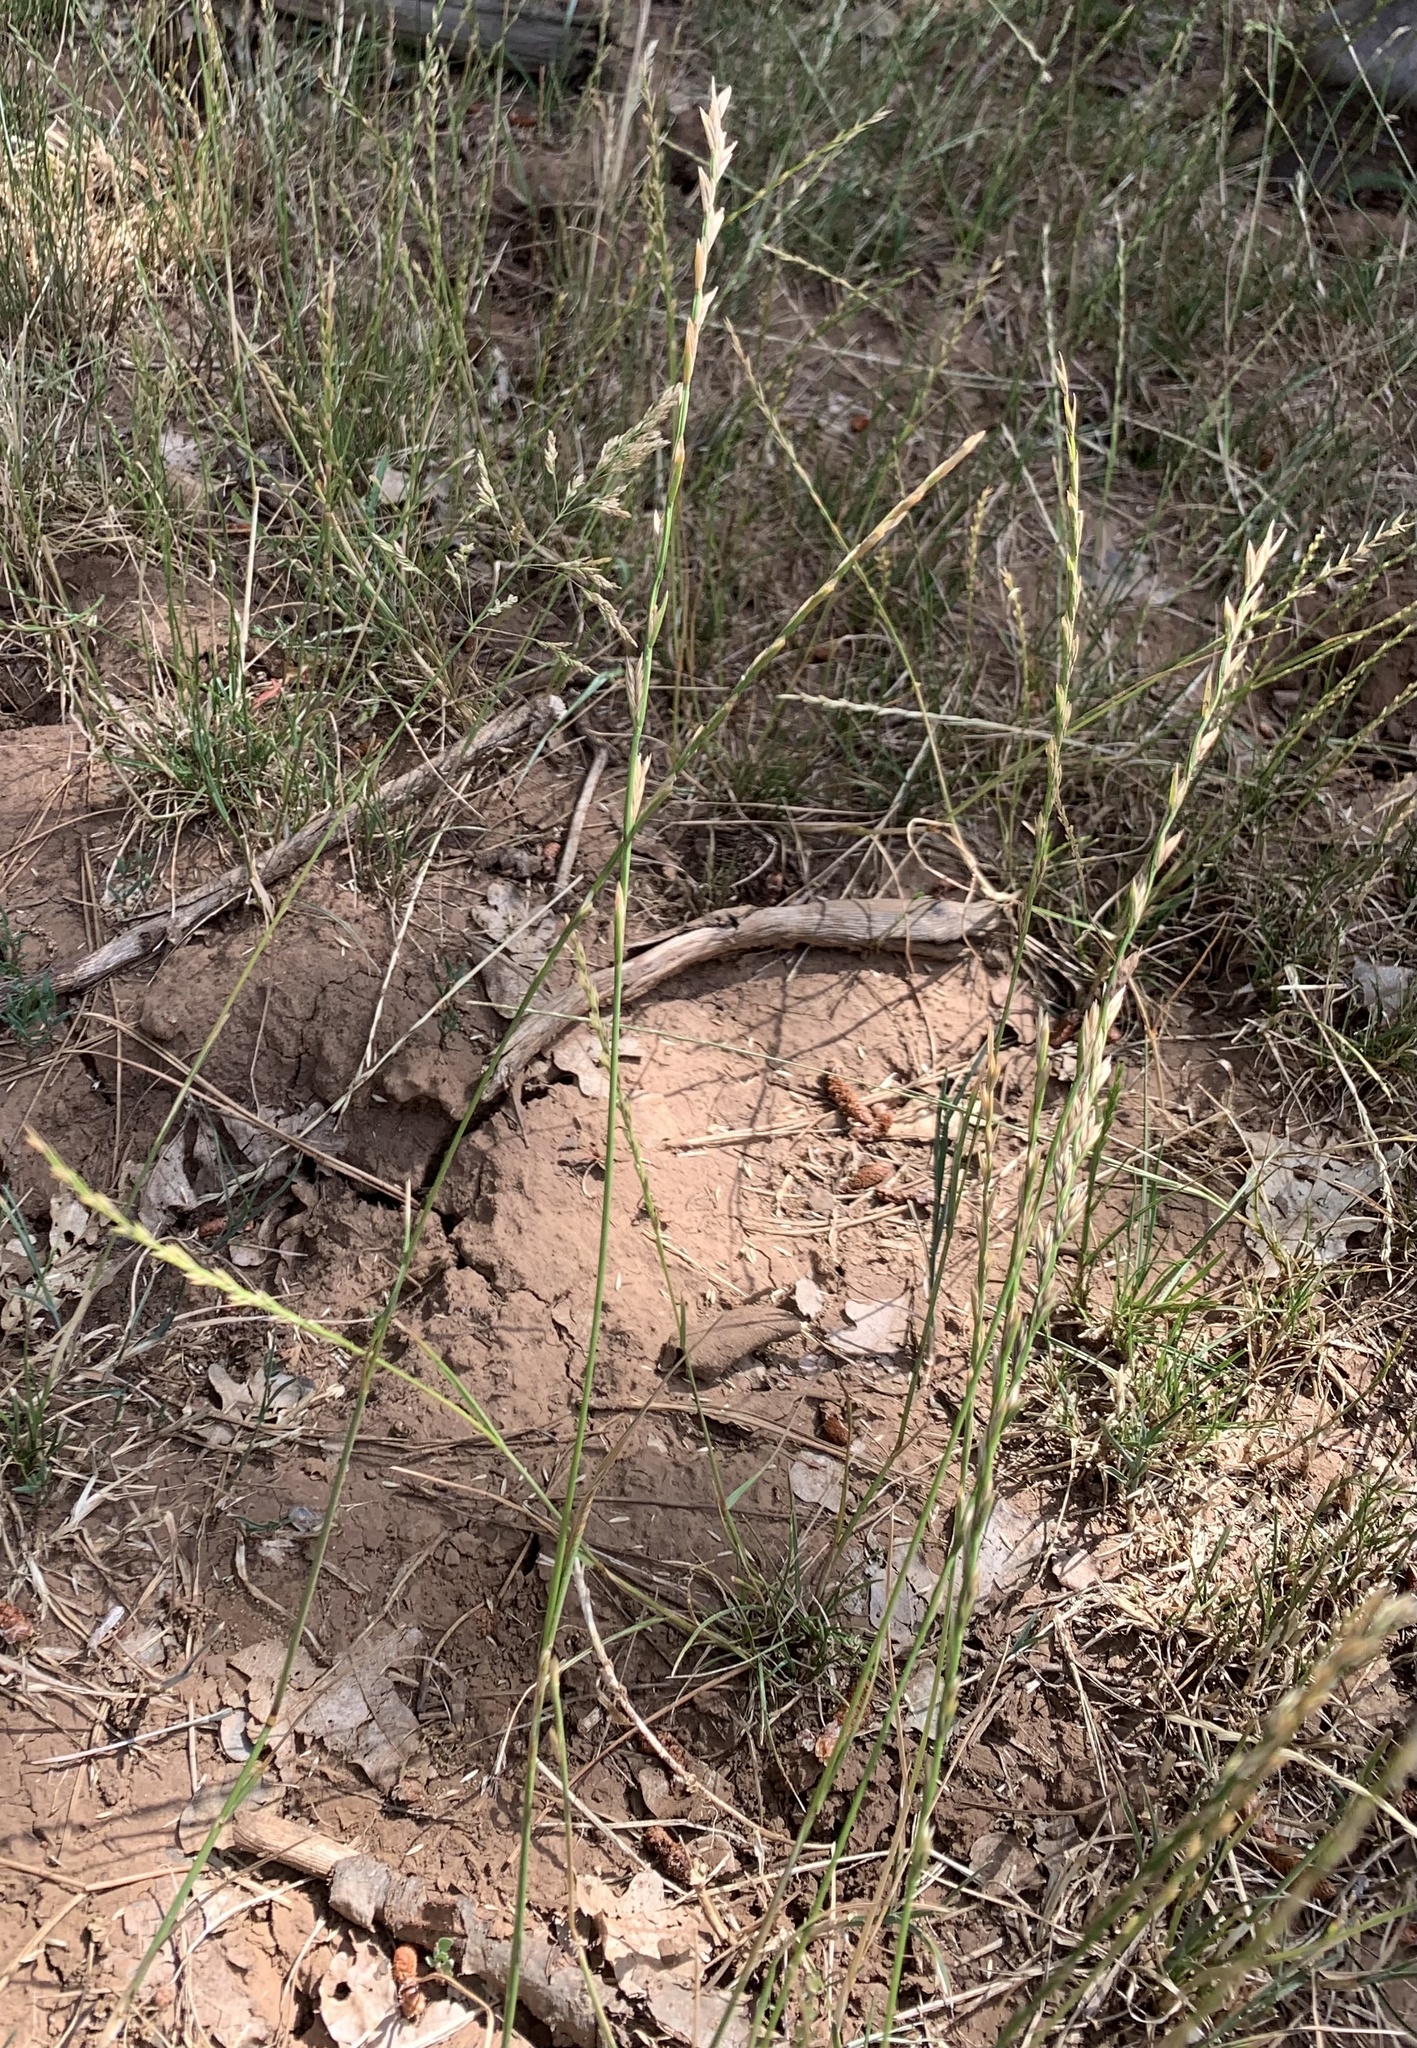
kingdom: Plantae
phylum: Tracheophyta
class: Liliopsida
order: Poales
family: Poaceae
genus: Lolium
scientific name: Lolium perenne
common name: Perennial ryegrass
